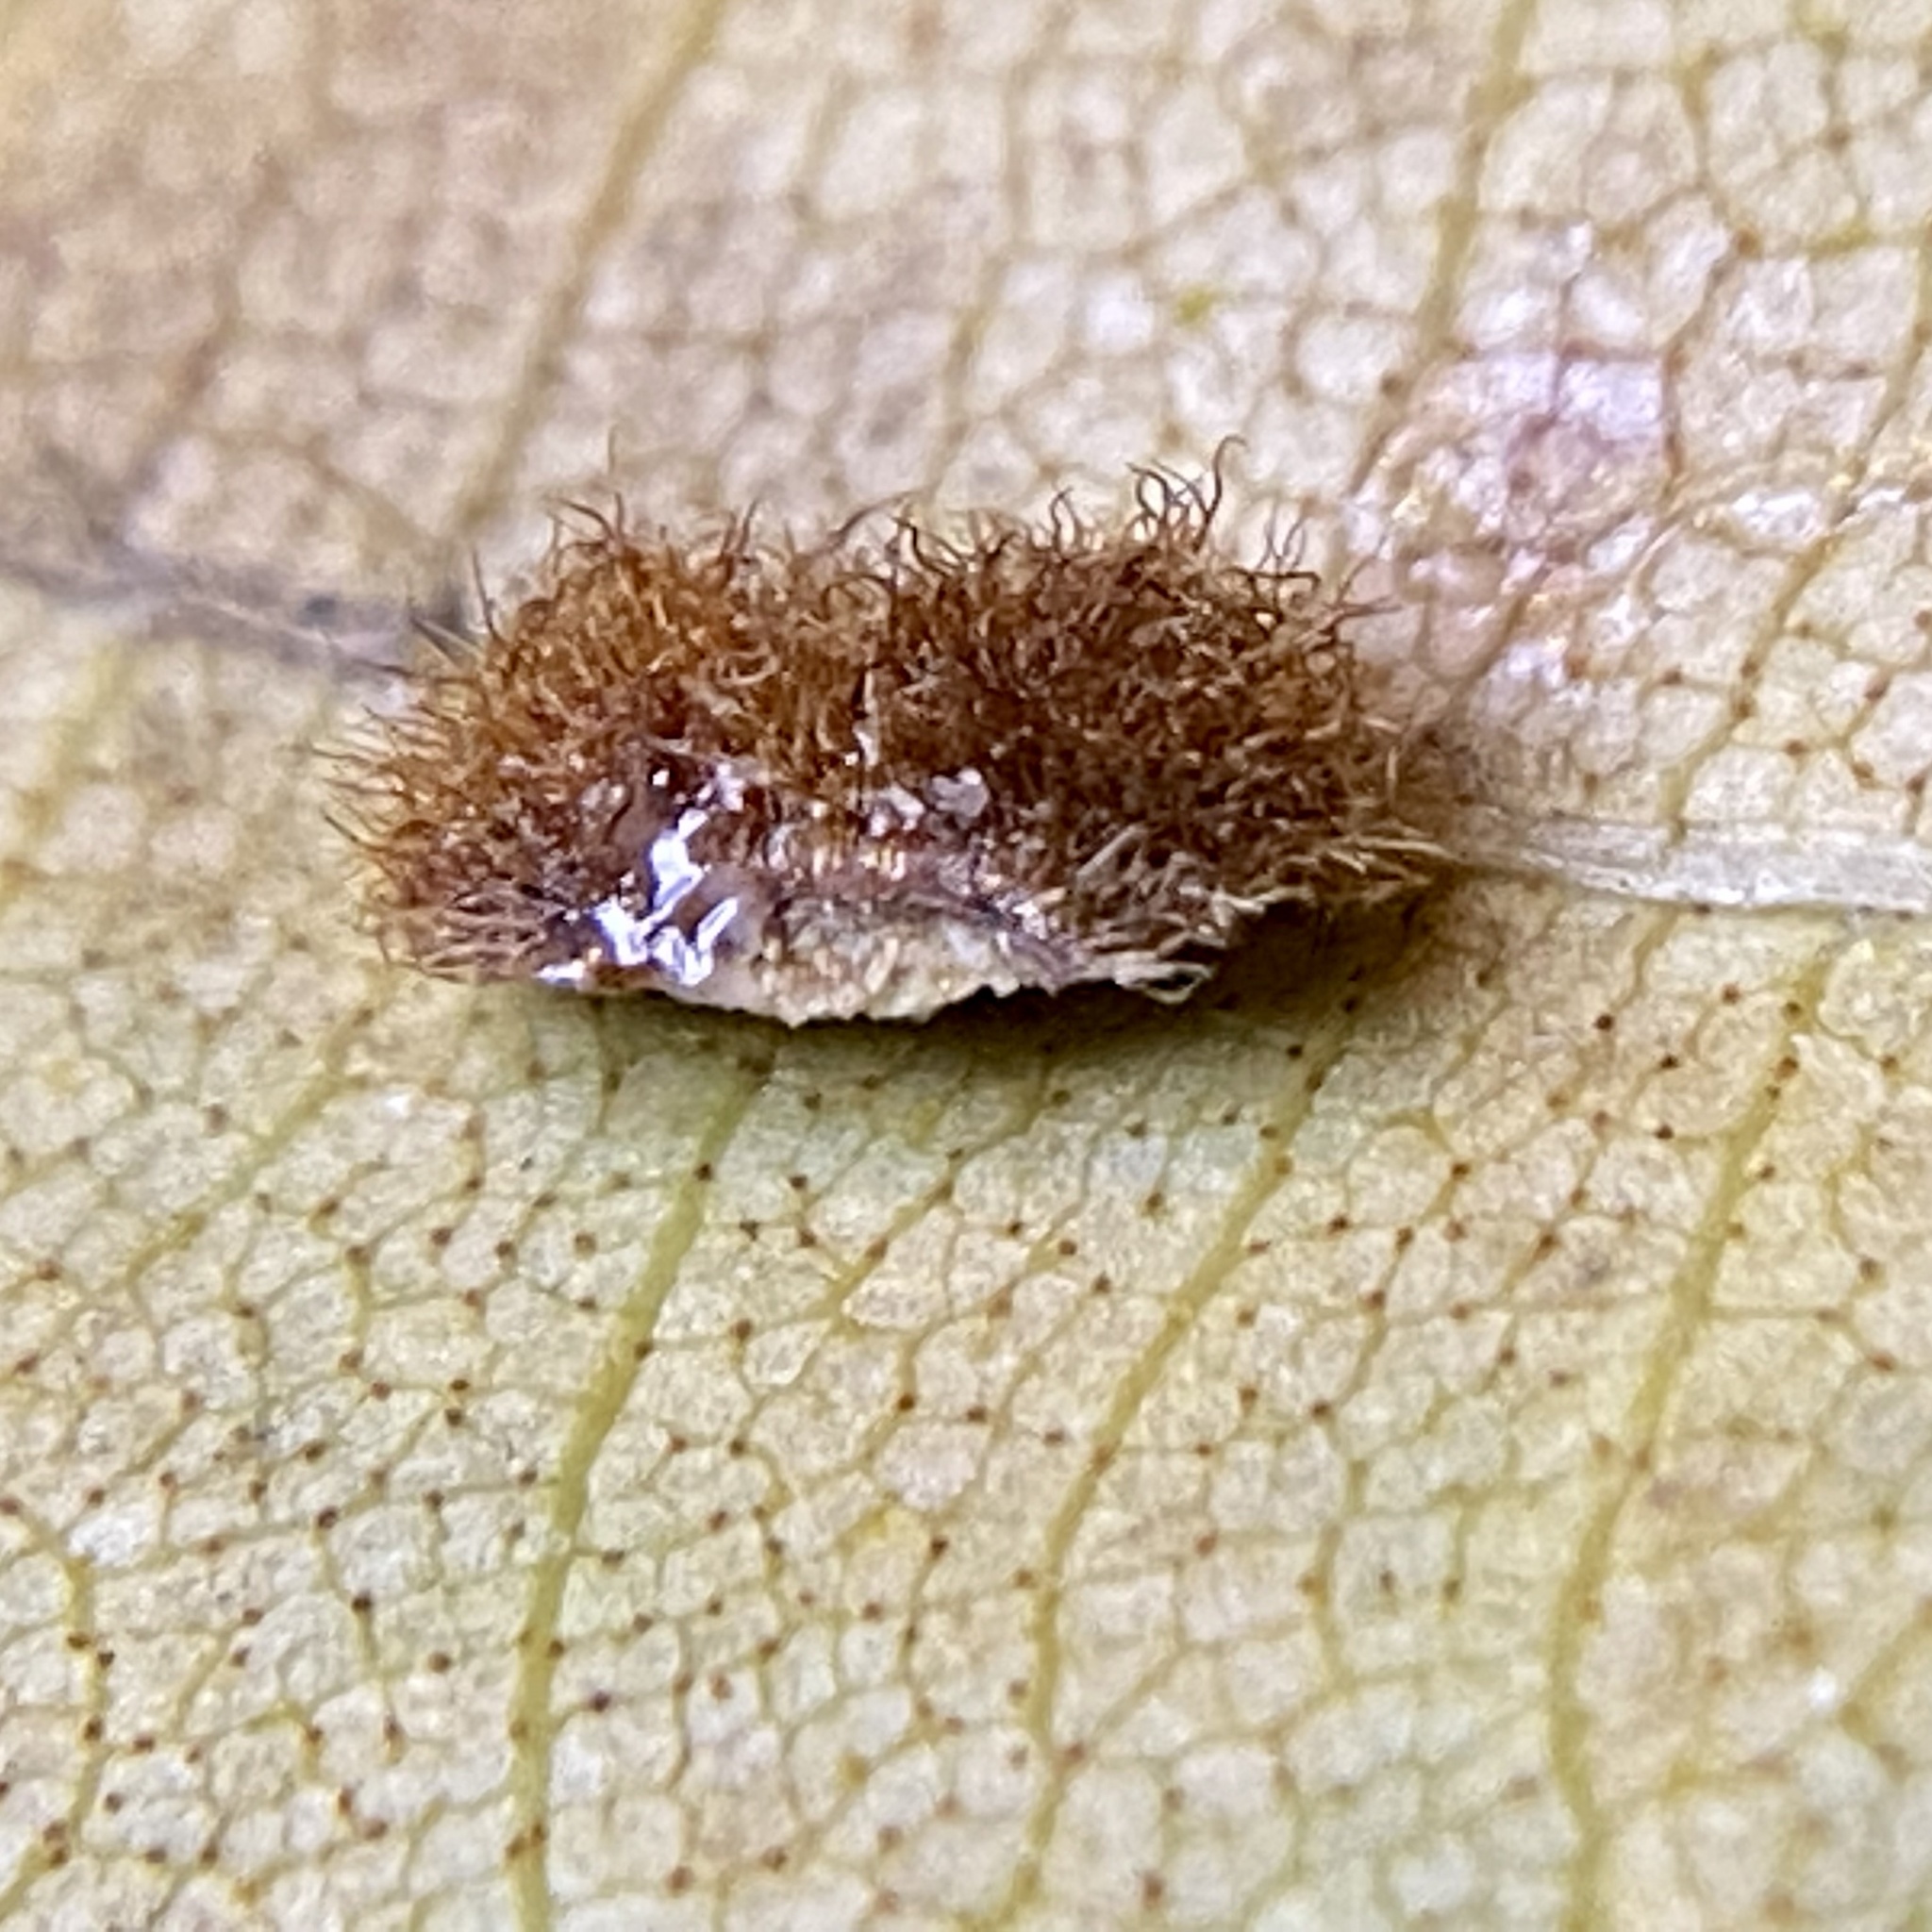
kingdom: Animalia
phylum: Arthropoda
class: Insecta
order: Diptera
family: Cecidomyiidae
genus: Caryomyia
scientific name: Caryomyia purpurea
